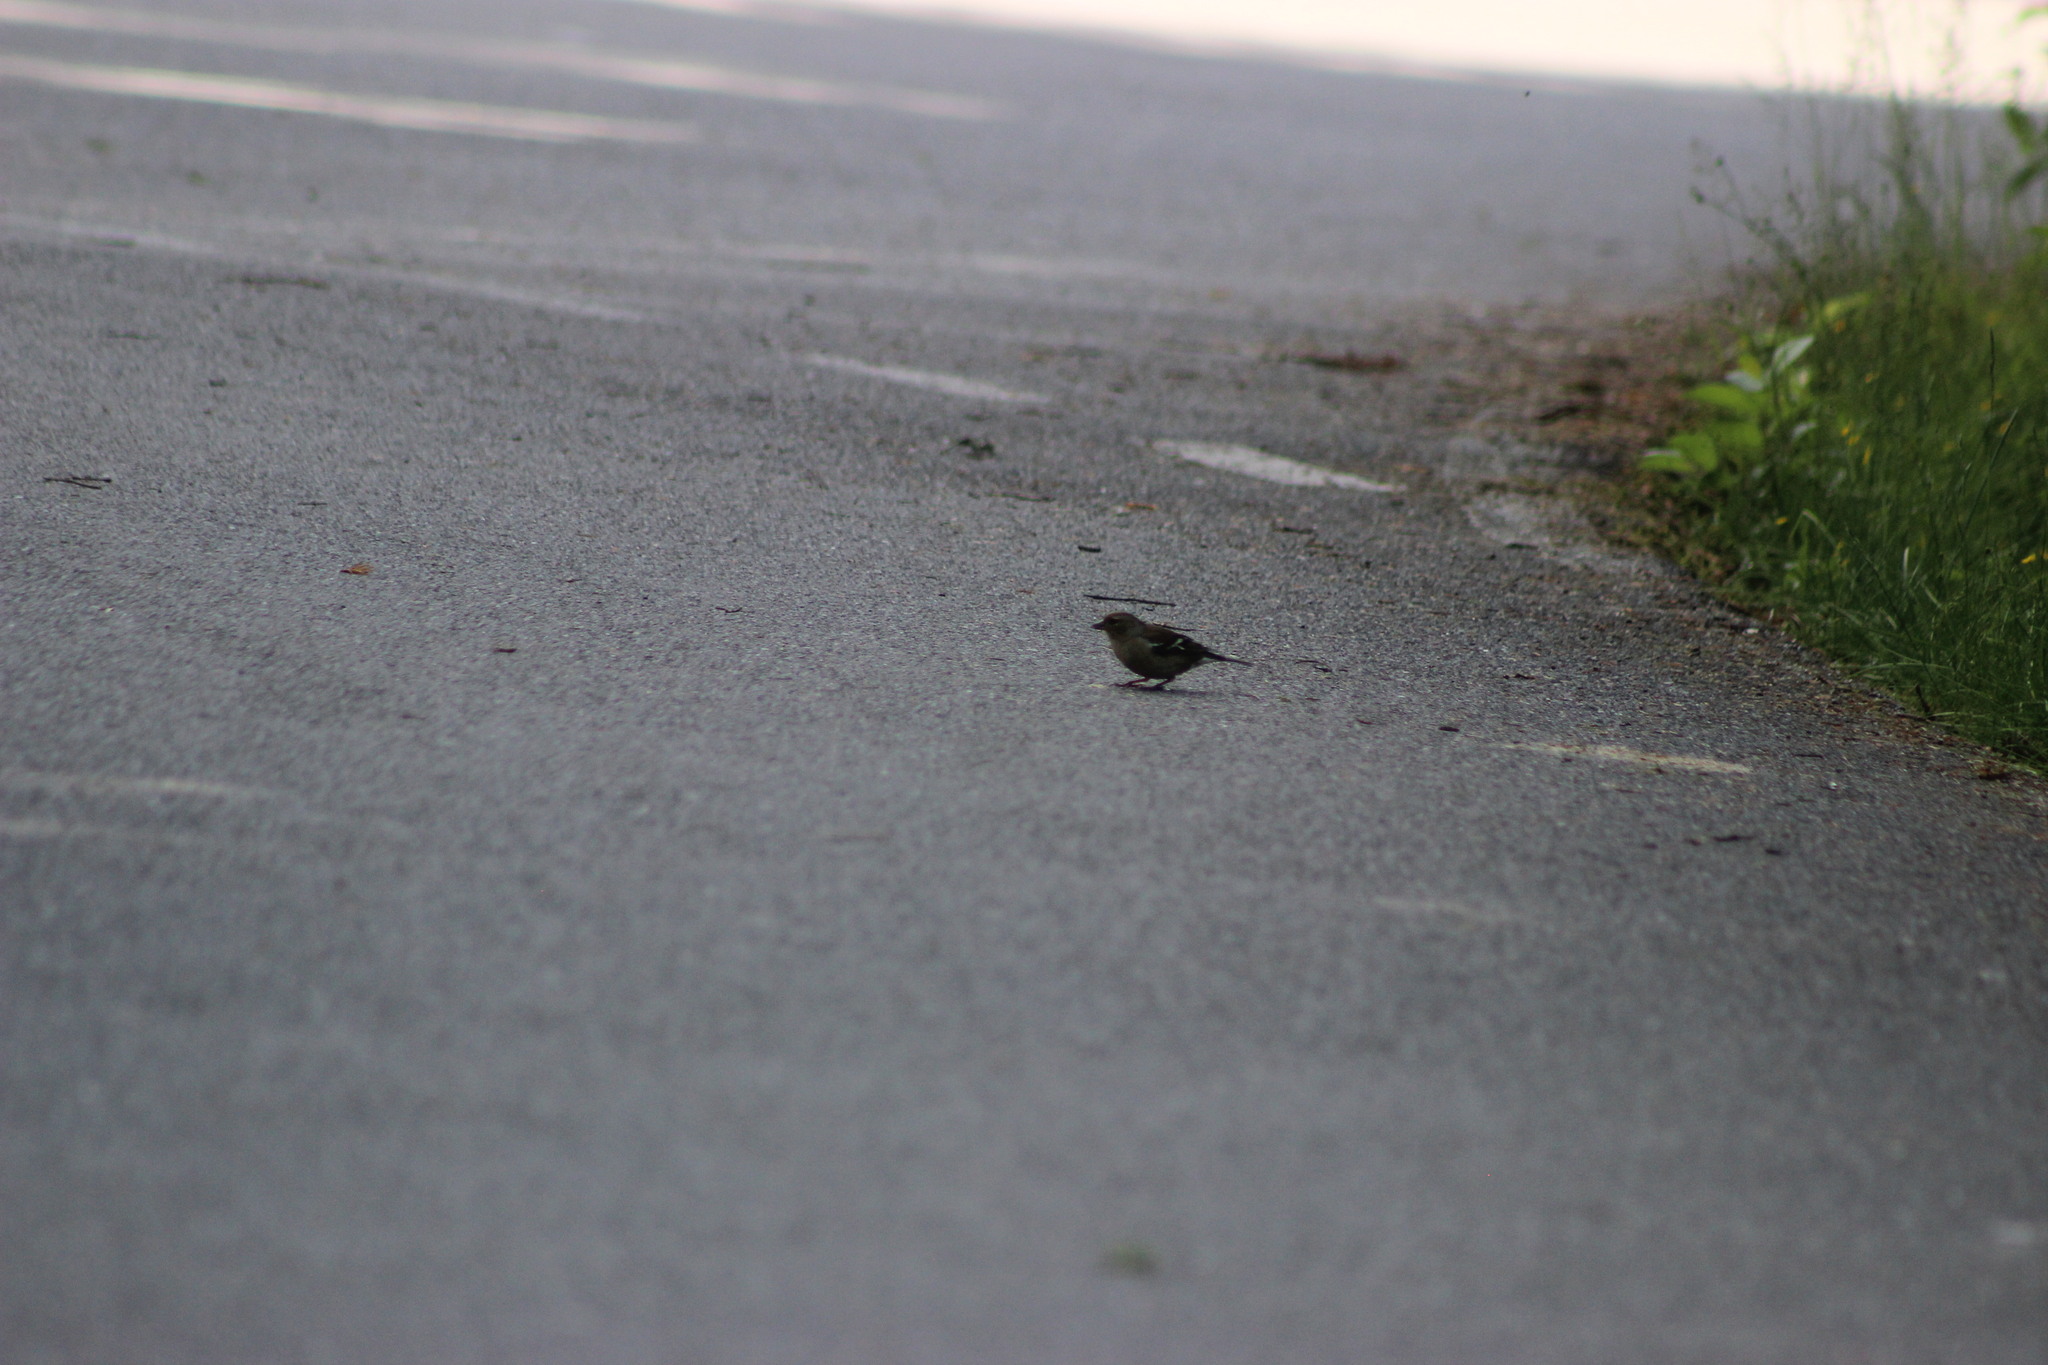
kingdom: Animalia
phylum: Chordata
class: Aves
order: Passeriformes
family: Fringillidae
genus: Fringilla
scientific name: Fringilla coelebs
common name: Common chaffinch
